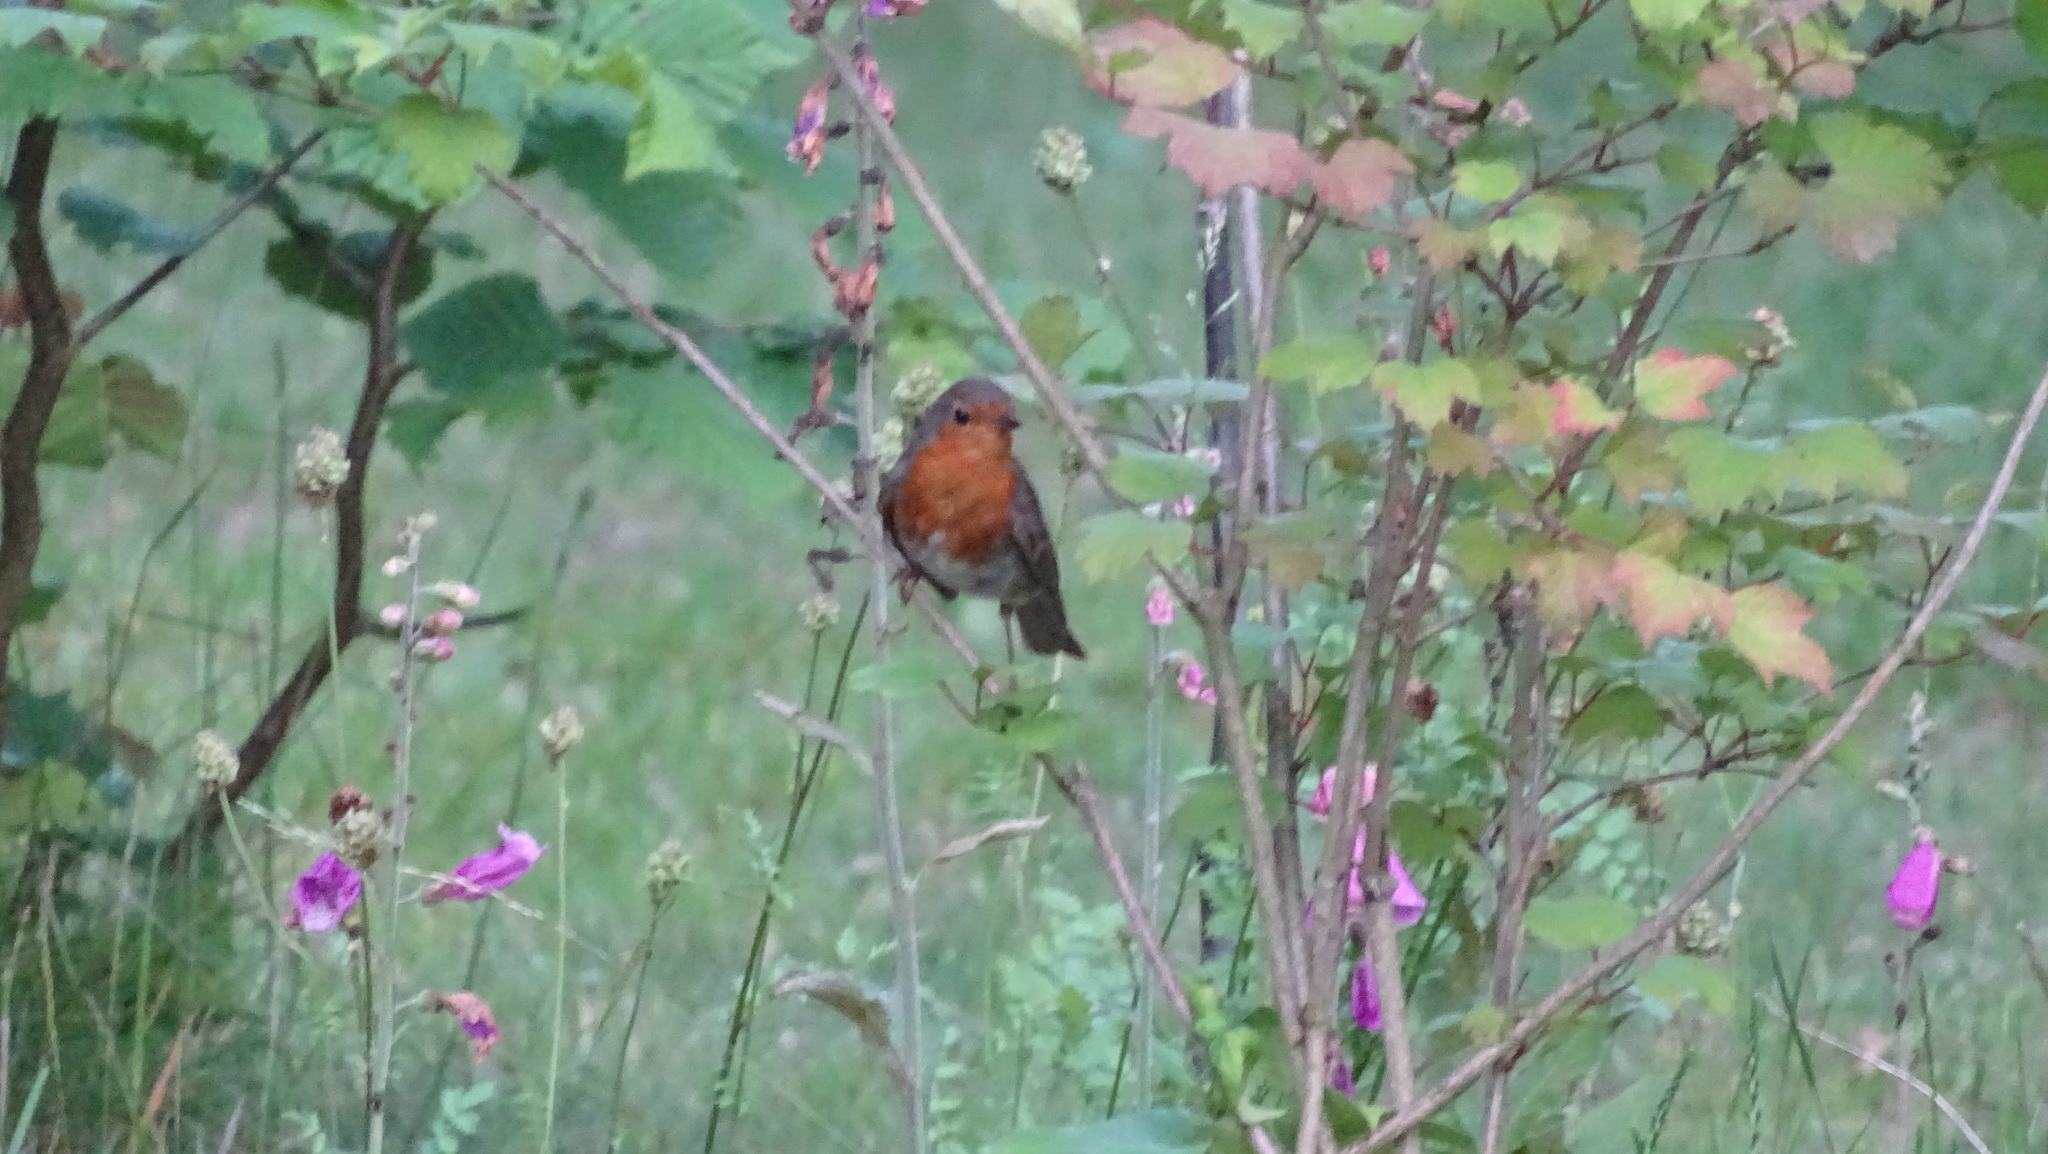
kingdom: Animalia
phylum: Chordata
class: Aves
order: Passeriformes
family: Muscicapidae
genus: Erithacus
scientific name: Erithacus rubecula
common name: European robin
